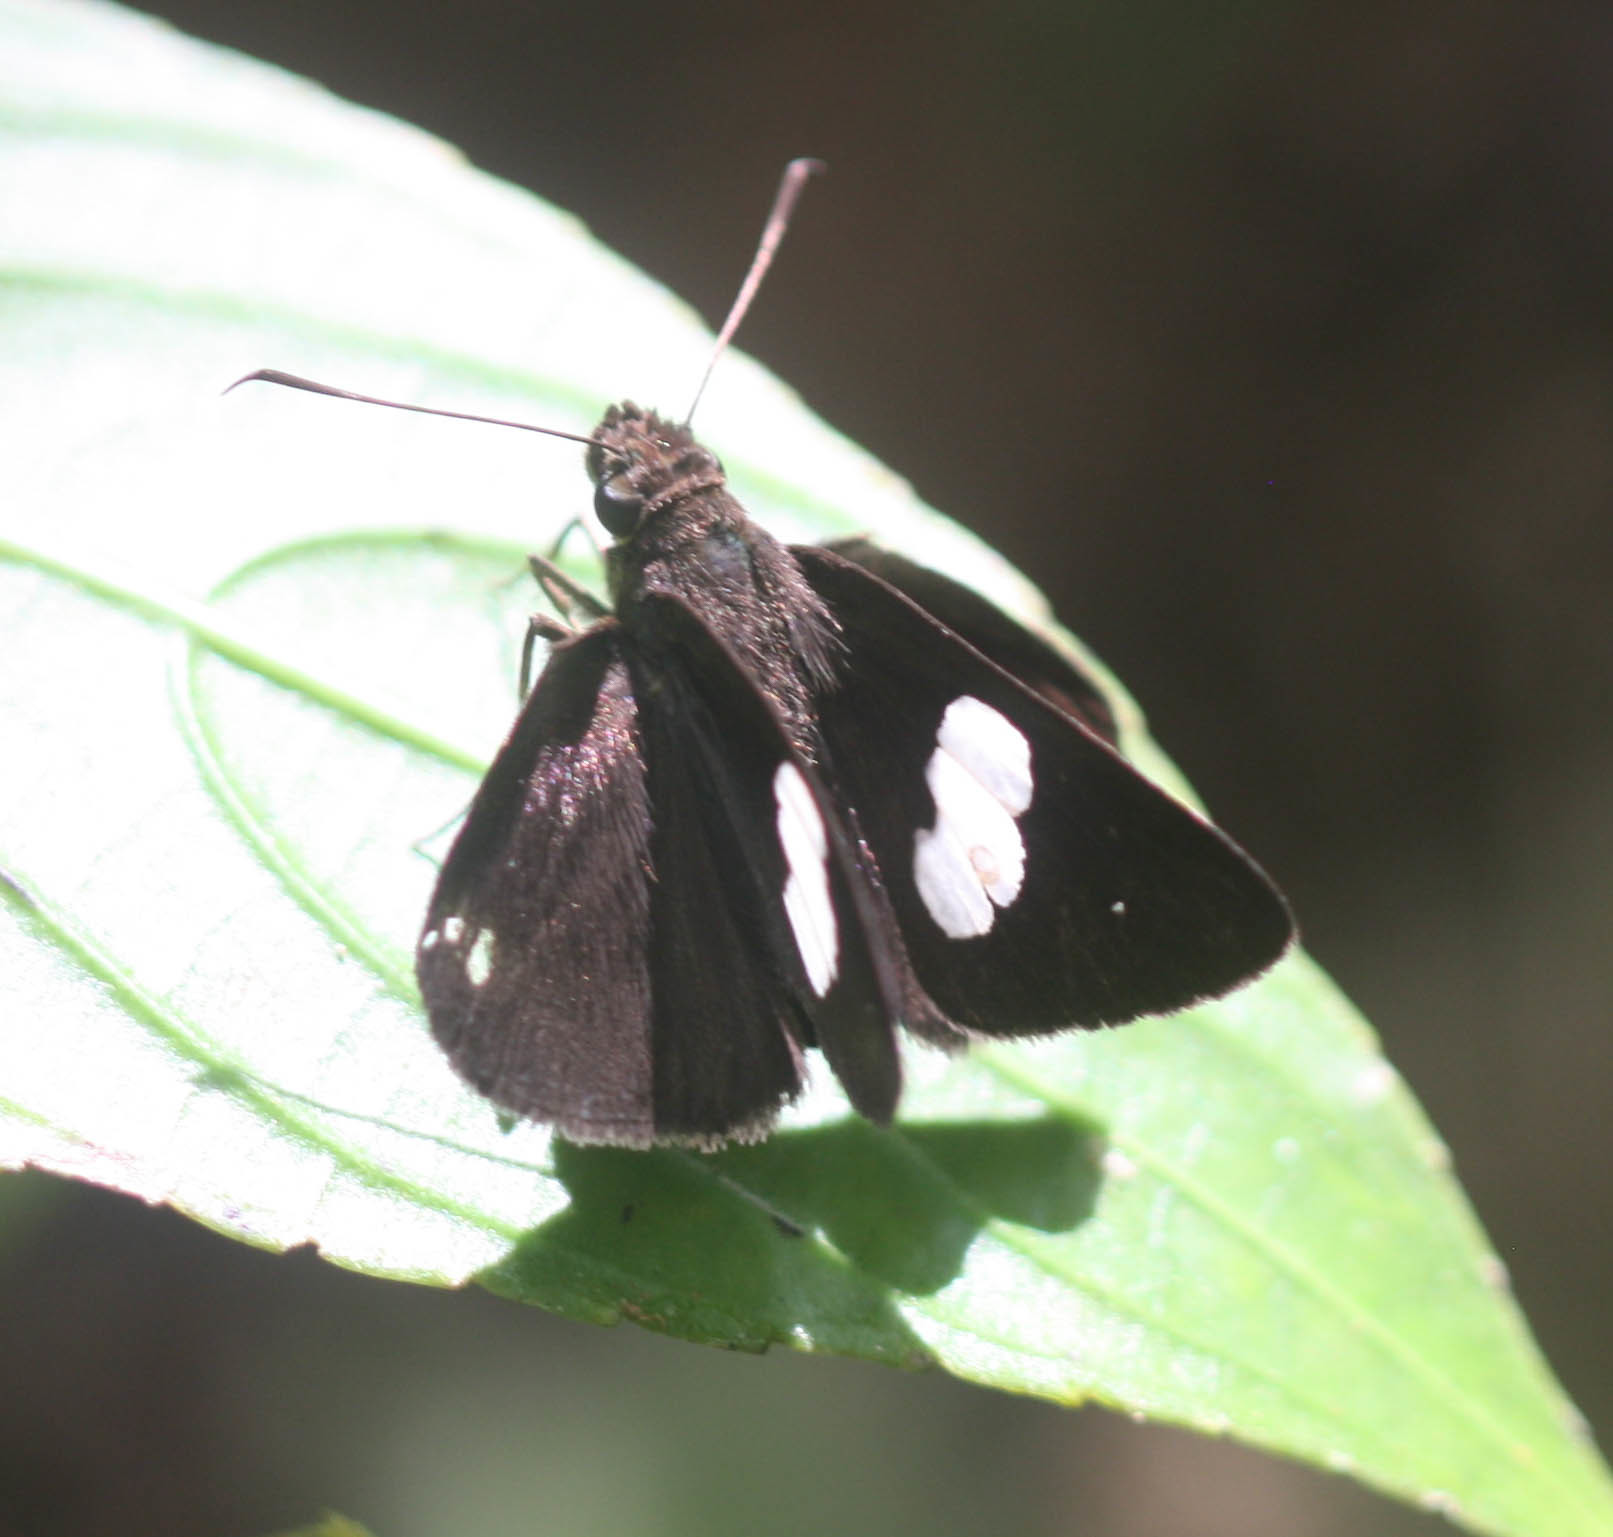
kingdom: Animalia
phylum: Arthropoda
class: Insecta
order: Lepidoptera
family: Hesperiidae
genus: Notocrypta
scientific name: Notocrypta paralysos
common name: Common banded demon
